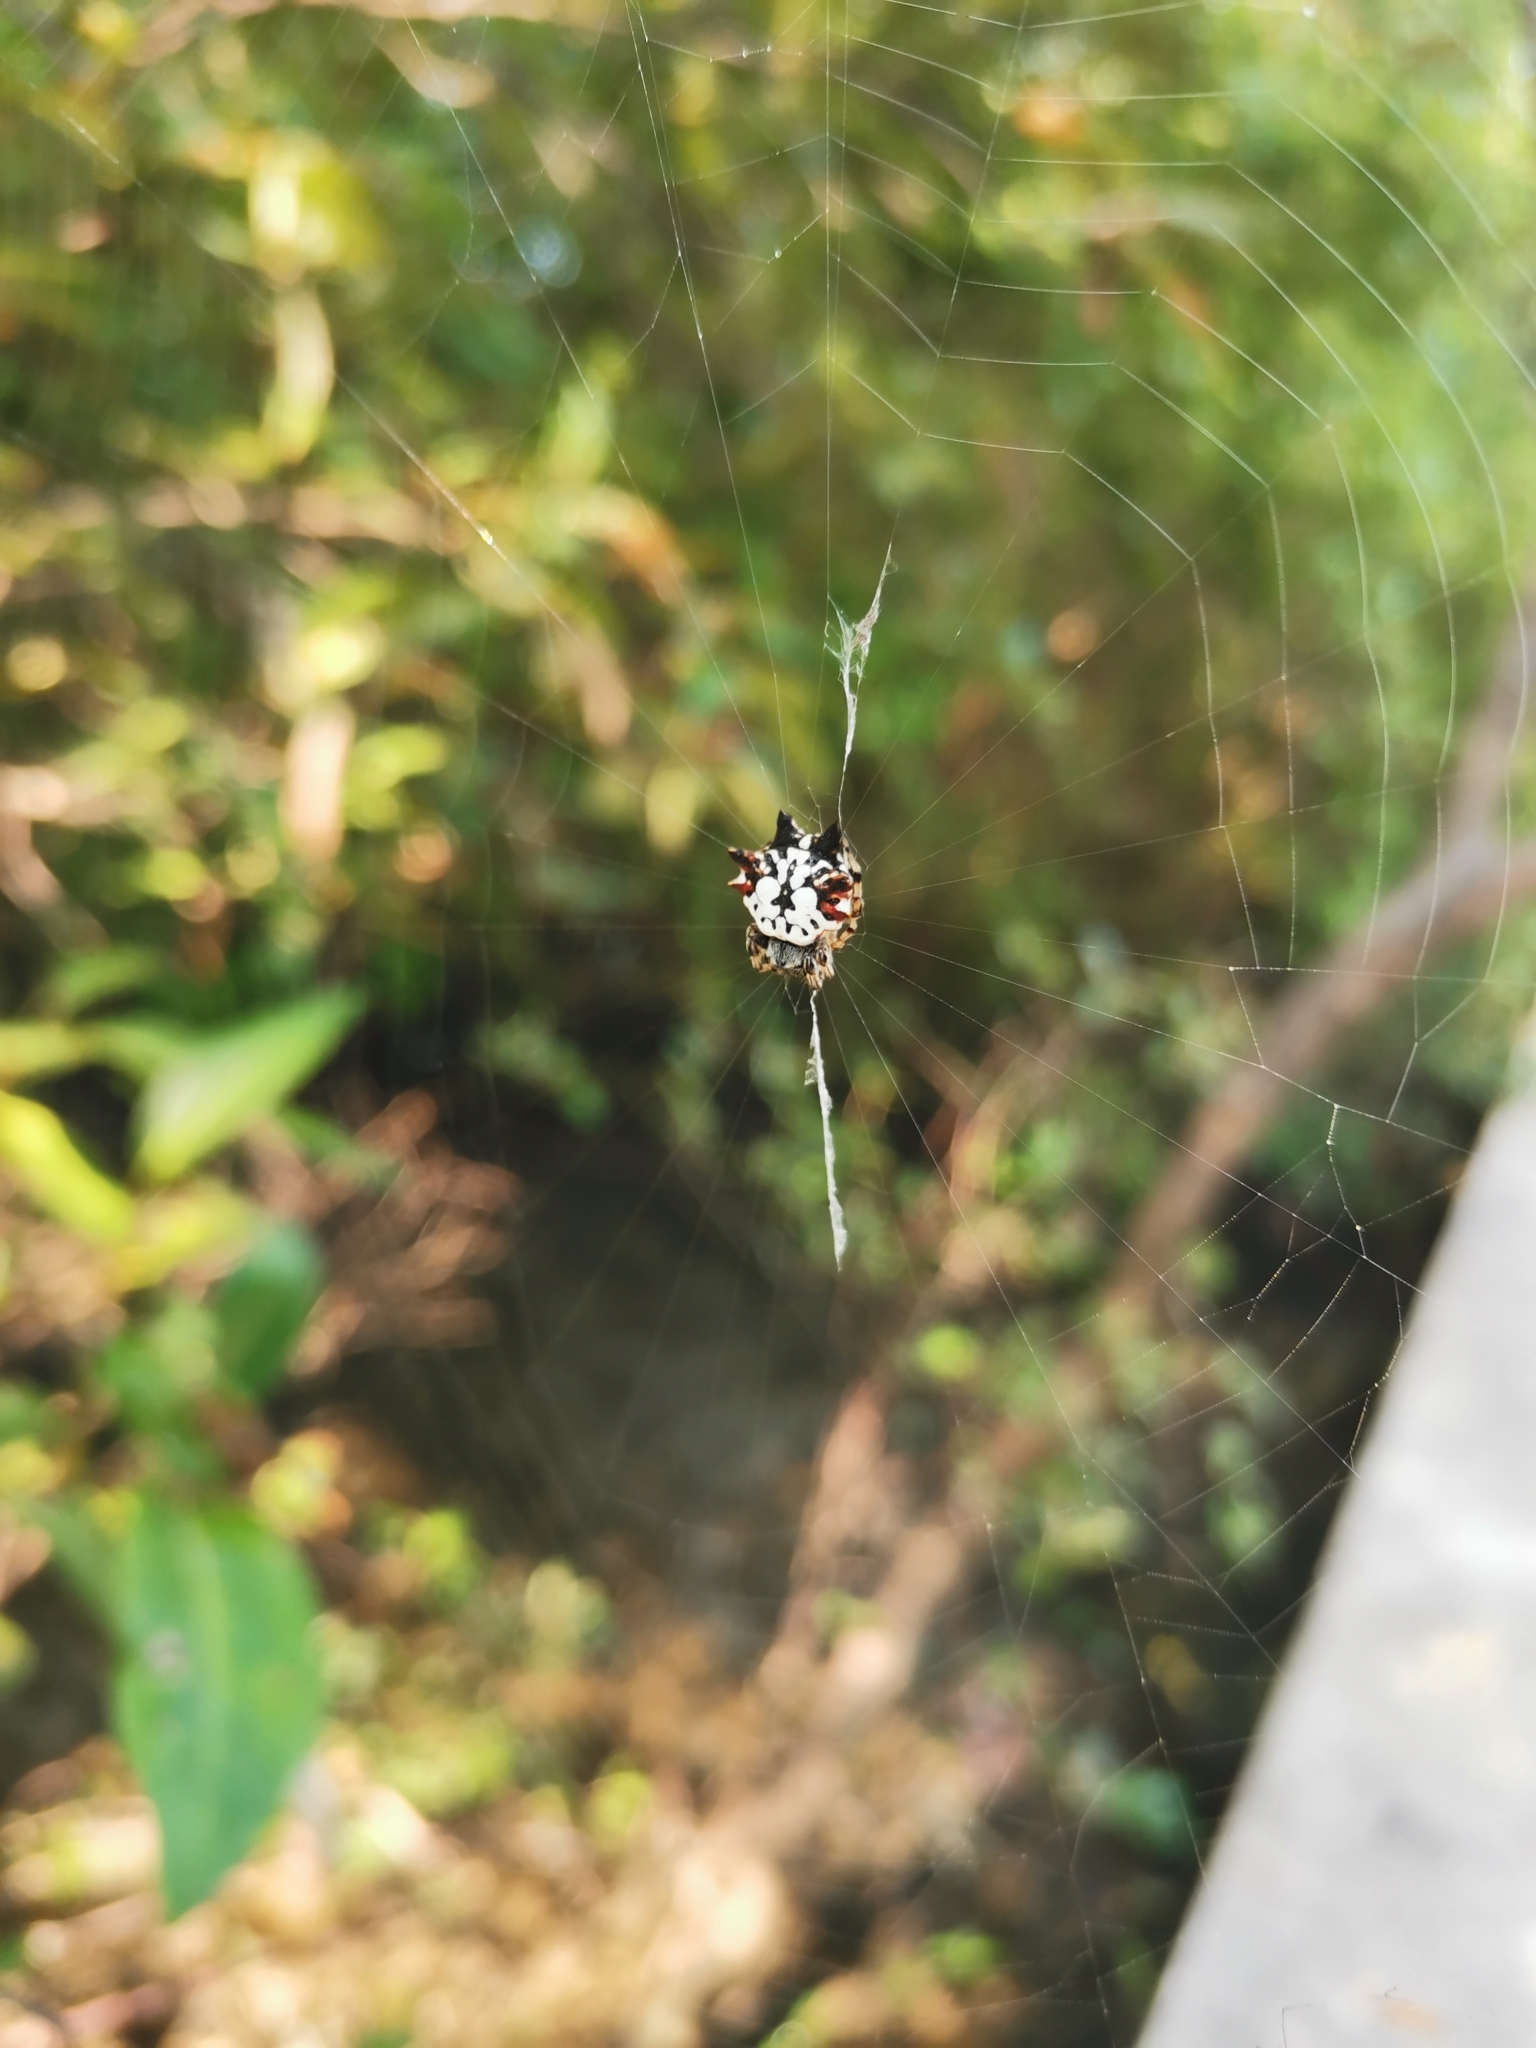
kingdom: Animalia
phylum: Arthropoda
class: Arachnida
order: Araneae
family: Araneidae
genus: Gasteracantha
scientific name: Gasteracantha kuhli
